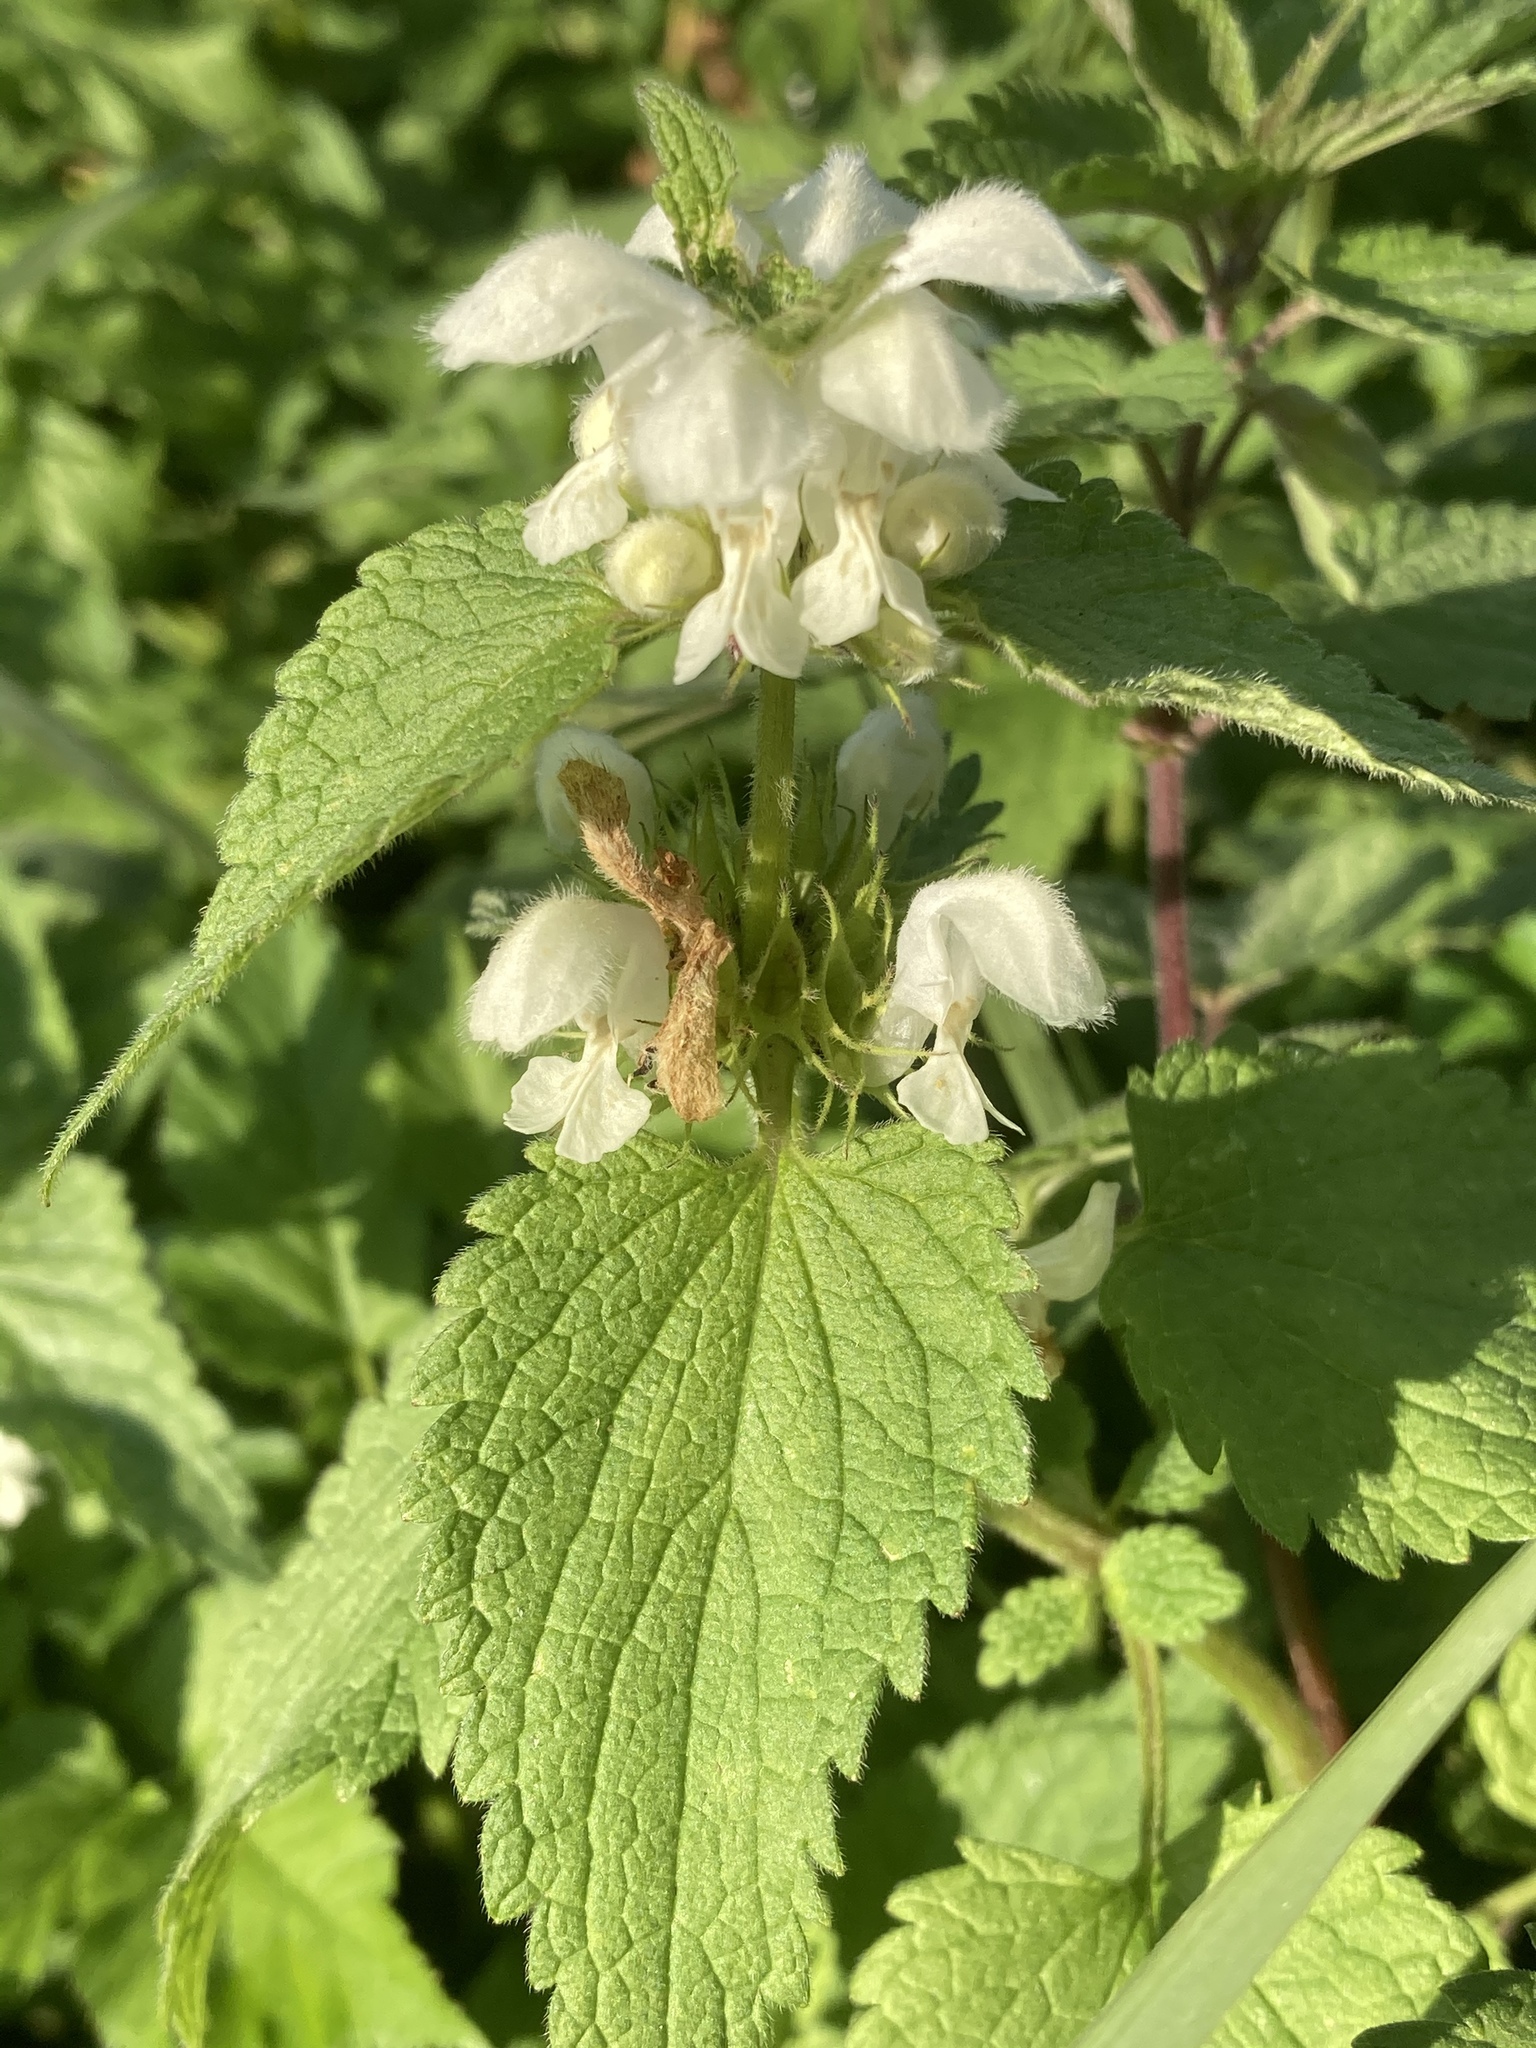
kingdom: Plantae
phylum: Tracheophyta
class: Magnoliopsida
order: Lamiales
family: Lamiaceae
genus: Lamium
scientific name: Lamium album
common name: White dead-nettle
